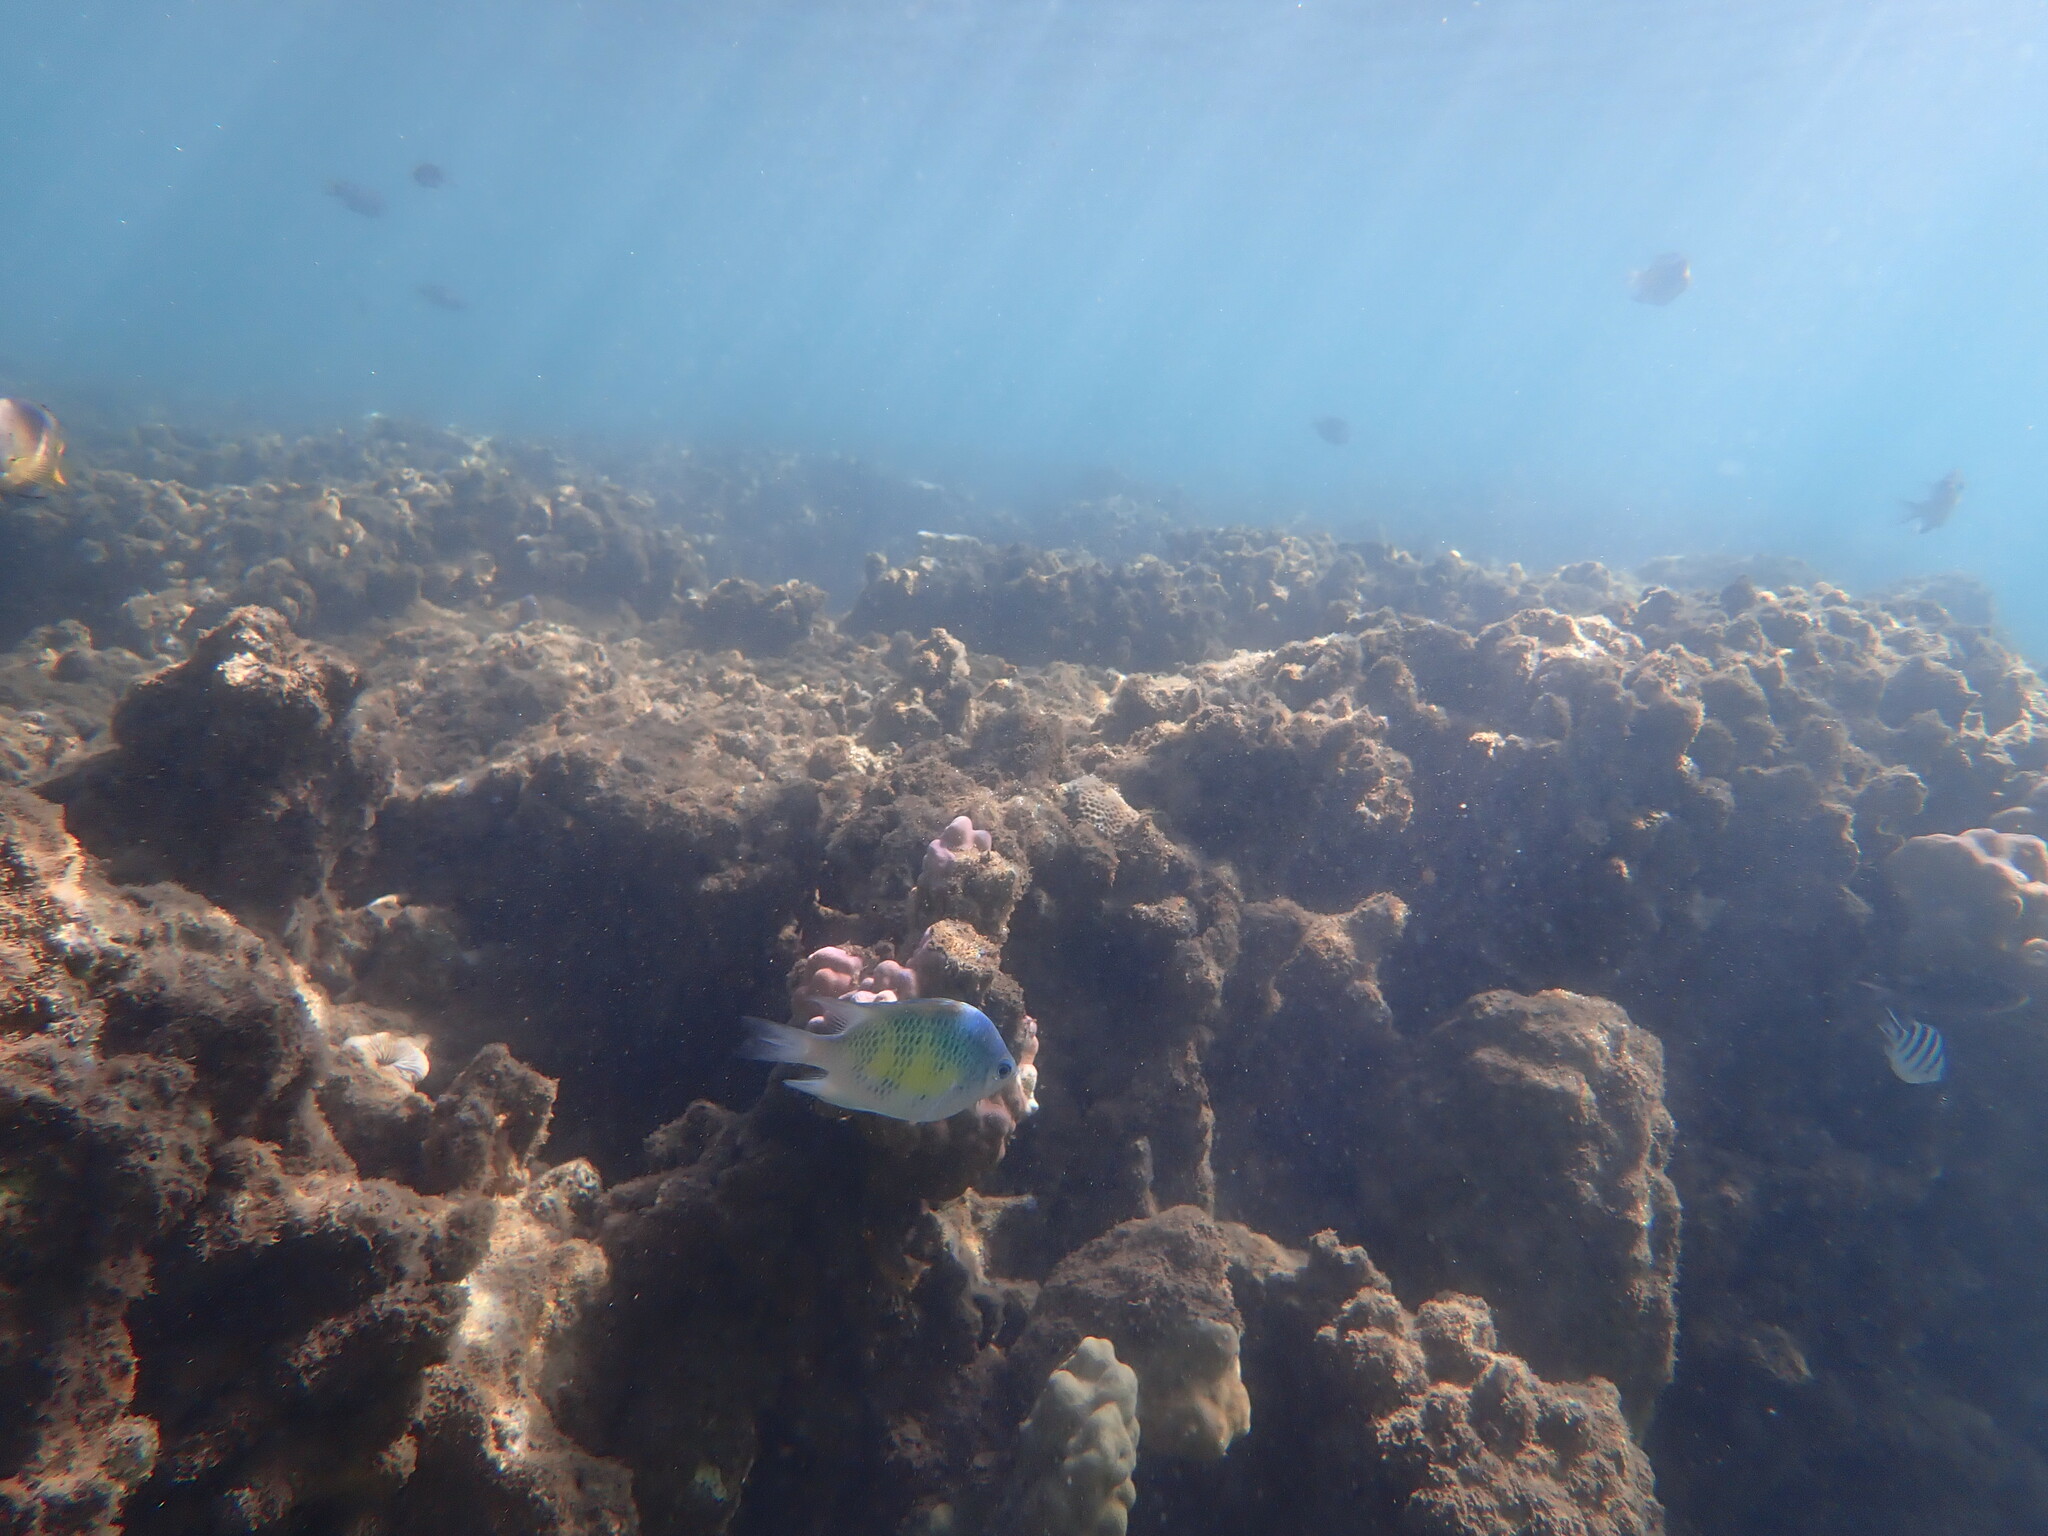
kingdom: Animalia
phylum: Chordata
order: Perciformes
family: Pomacentridae
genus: Amblyglyphidodon
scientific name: Amblyglyphidodon curacao
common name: Staghorn damsel
